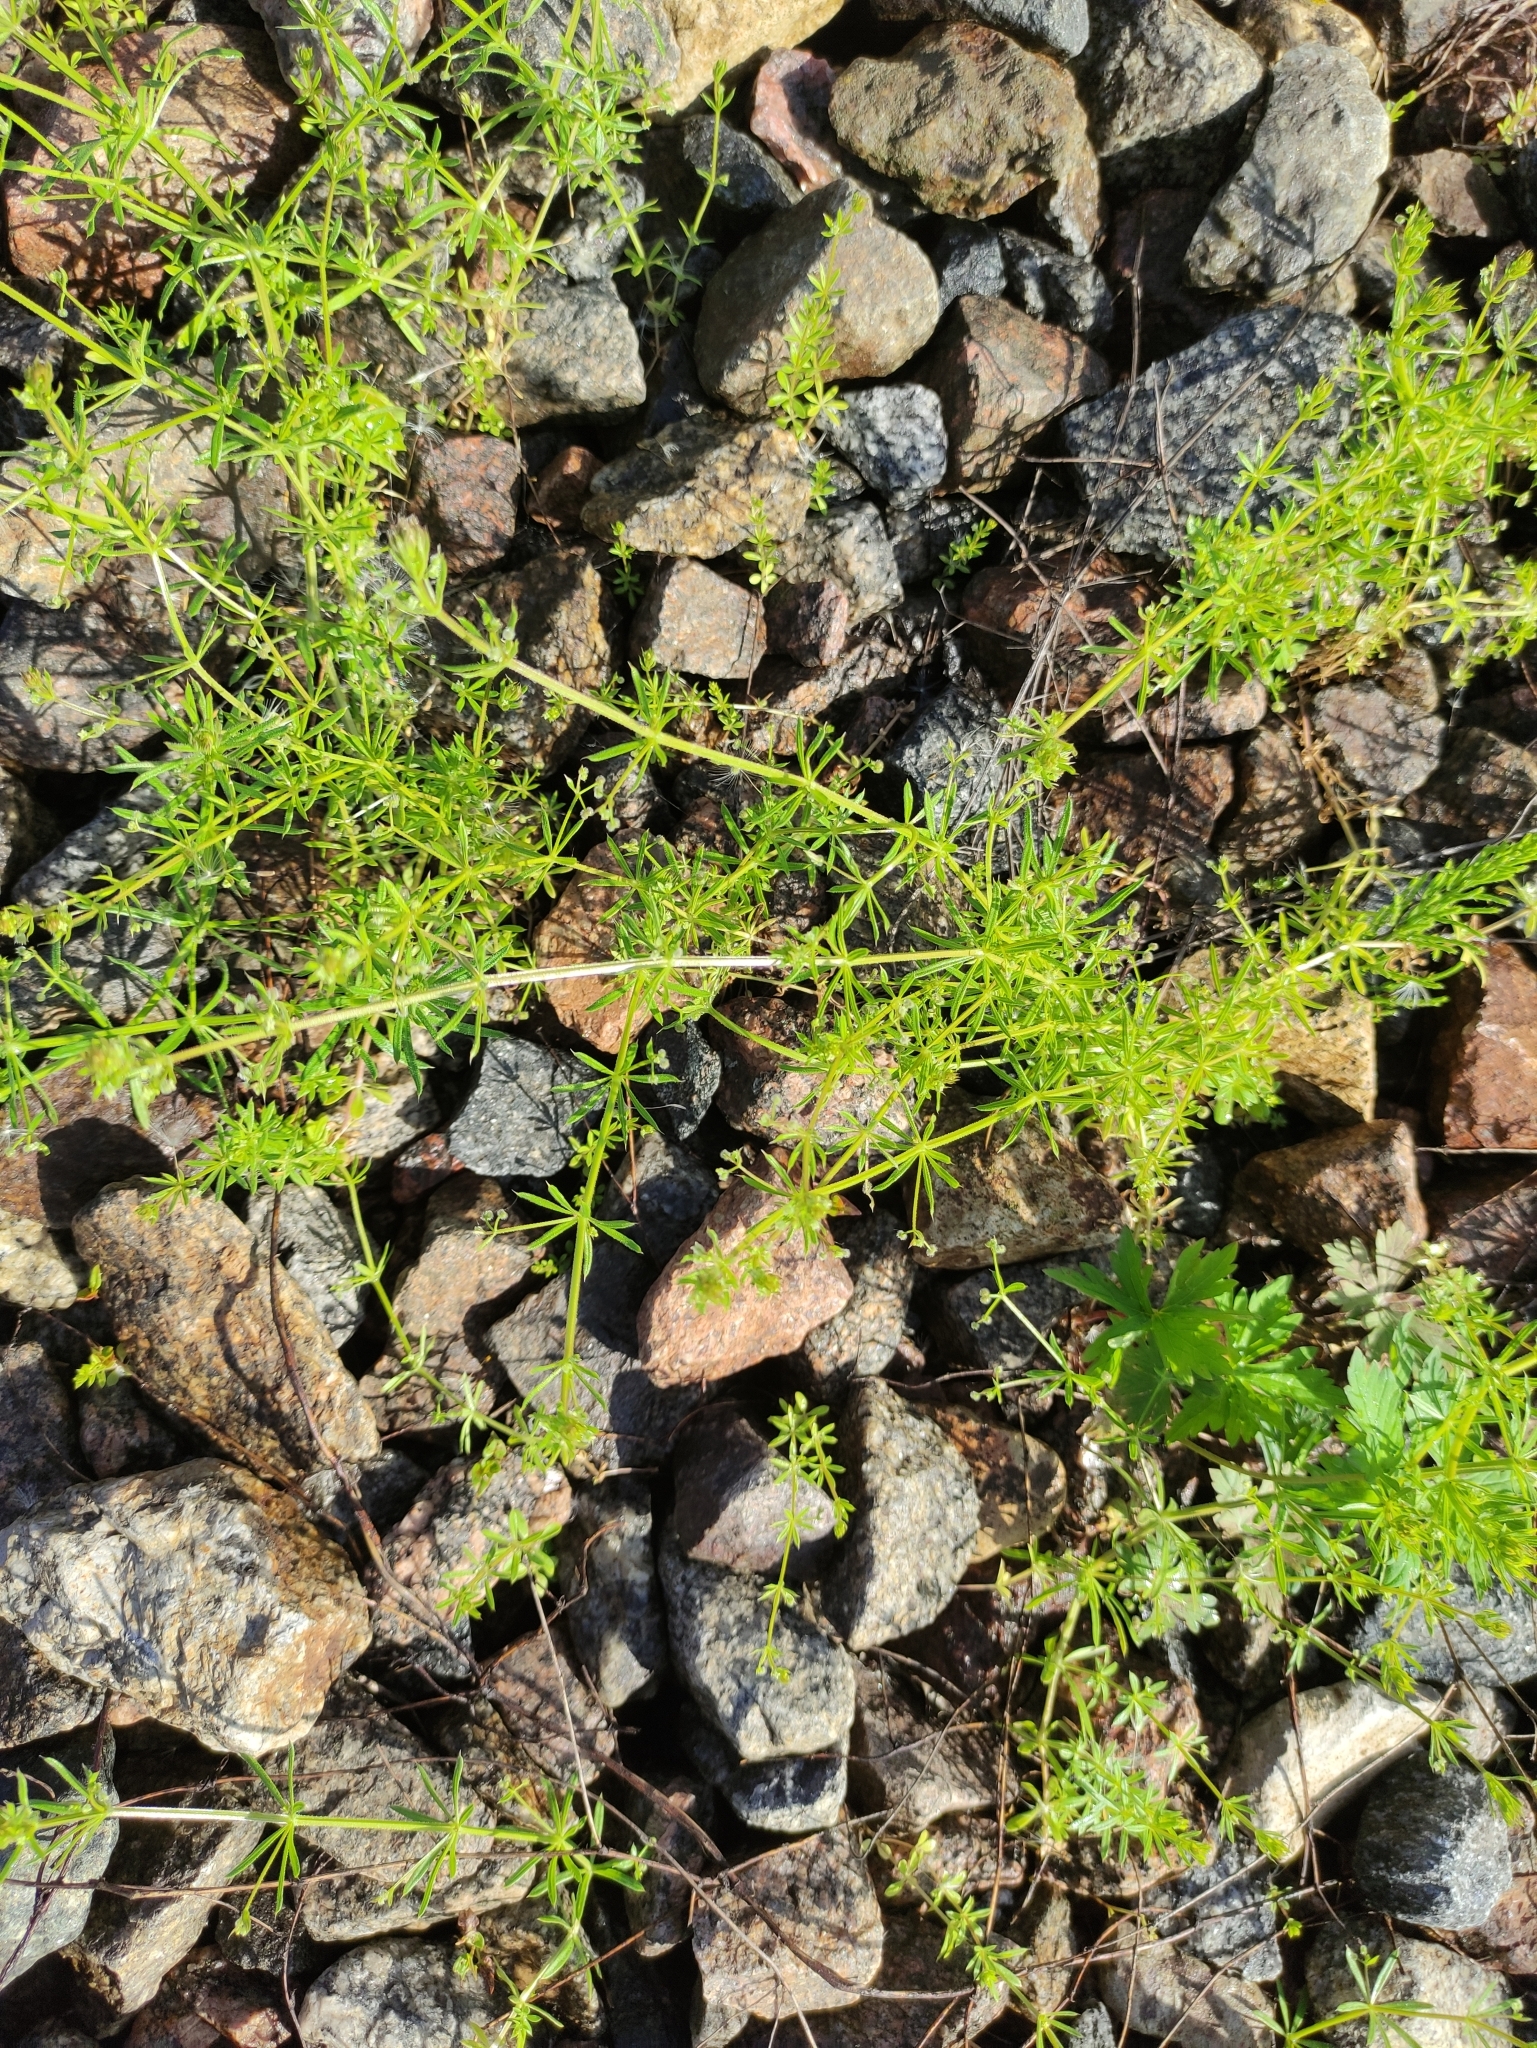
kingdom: Plantae
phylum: Tracheophyta
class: Magnoliopsida
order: Gentianales
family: Rubiaceae
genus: Galium
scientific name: Galium
